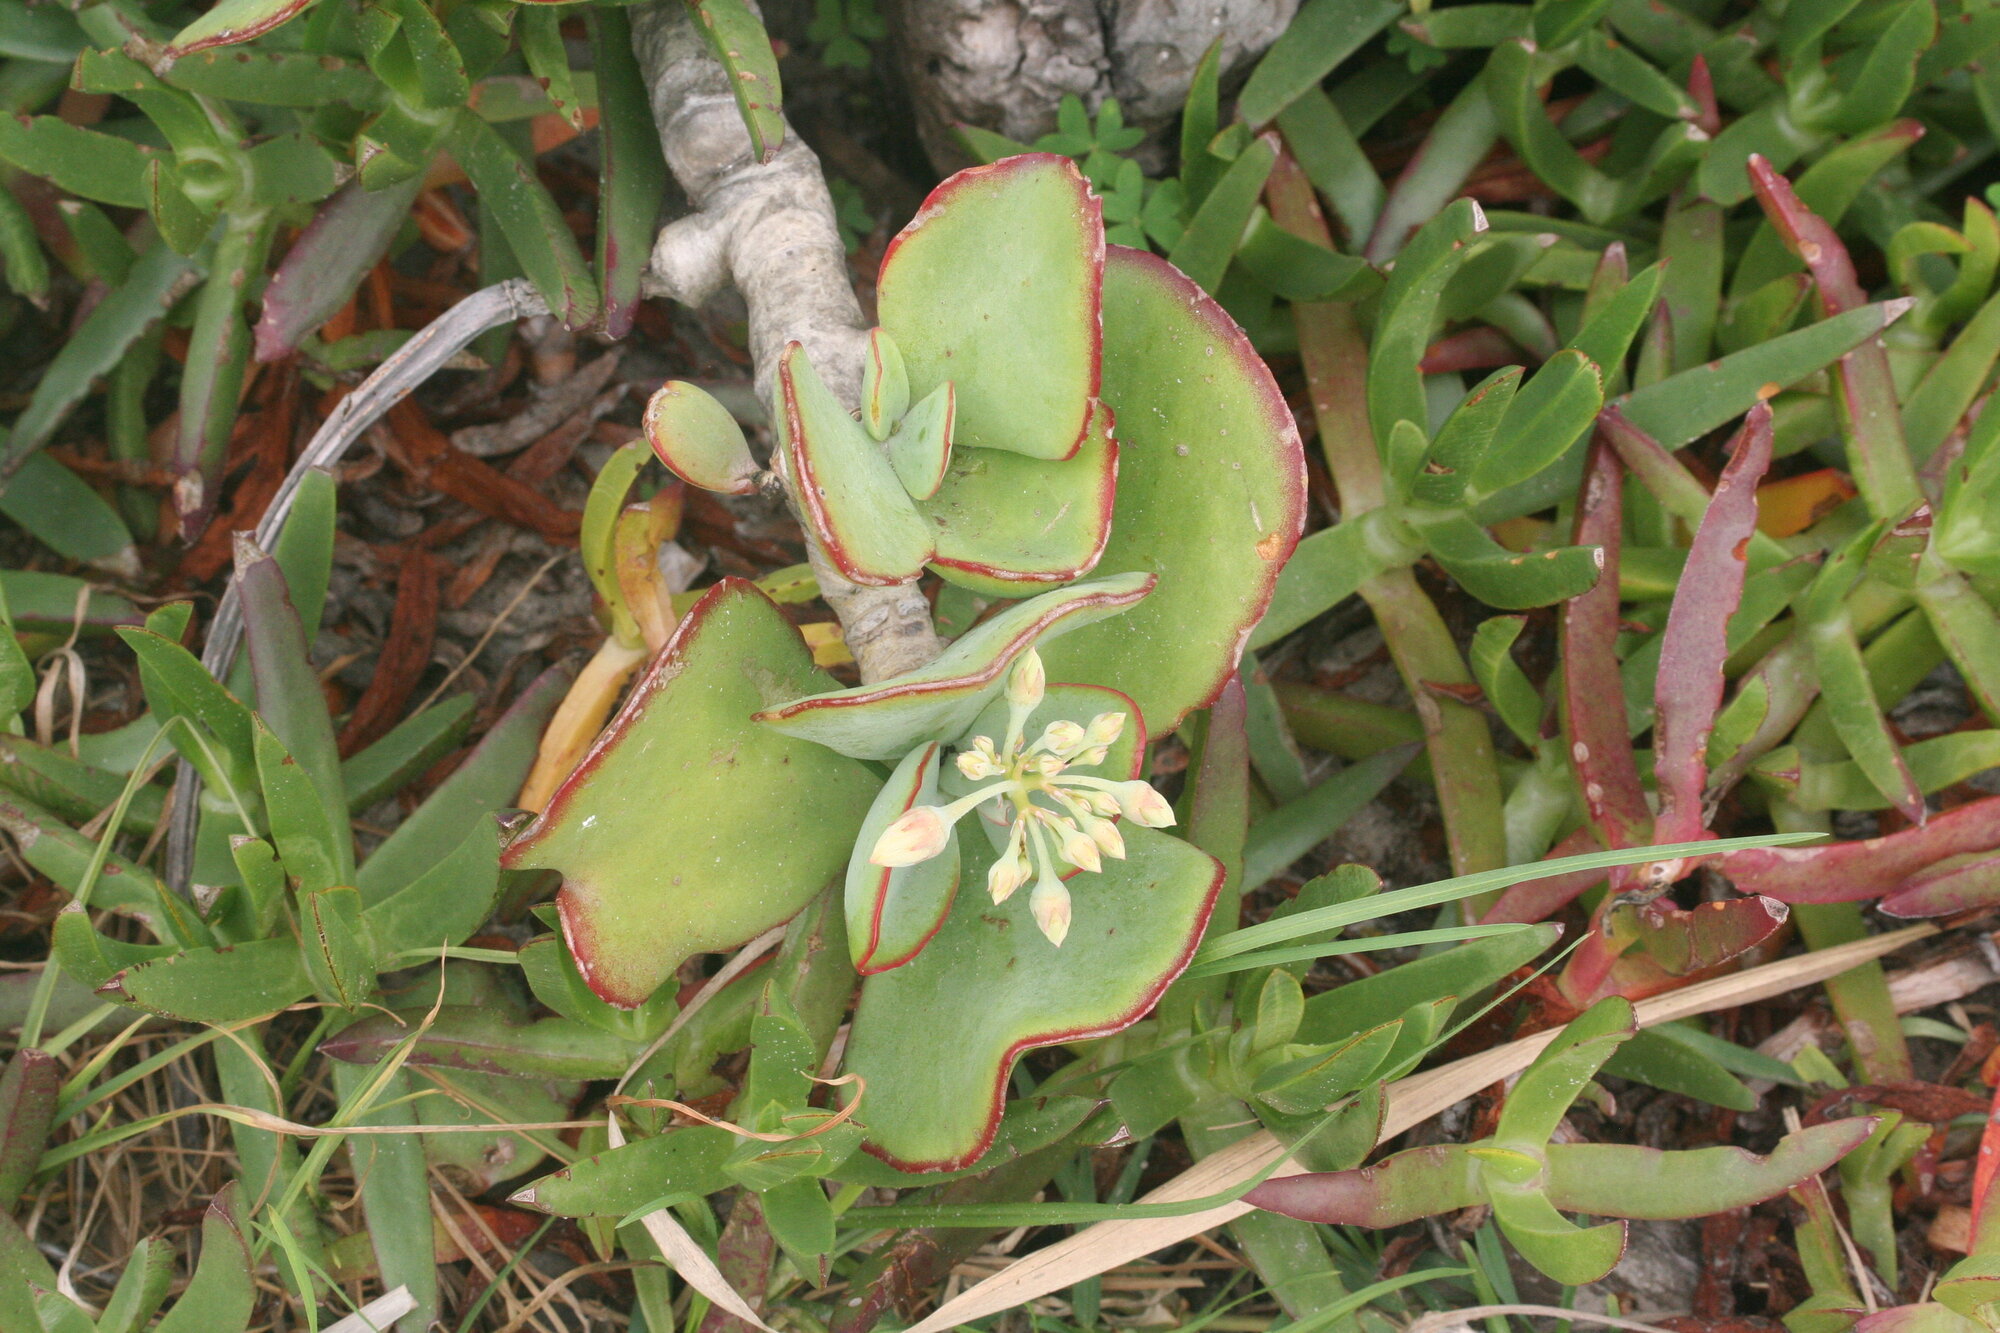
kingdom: Plantae
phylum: Tracheophyta
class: Magnoliopsida
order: Saxifragales
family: Crassulaceae
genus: Cotyledon
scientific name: Cotyledon orbiculata
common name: Pig's ear
